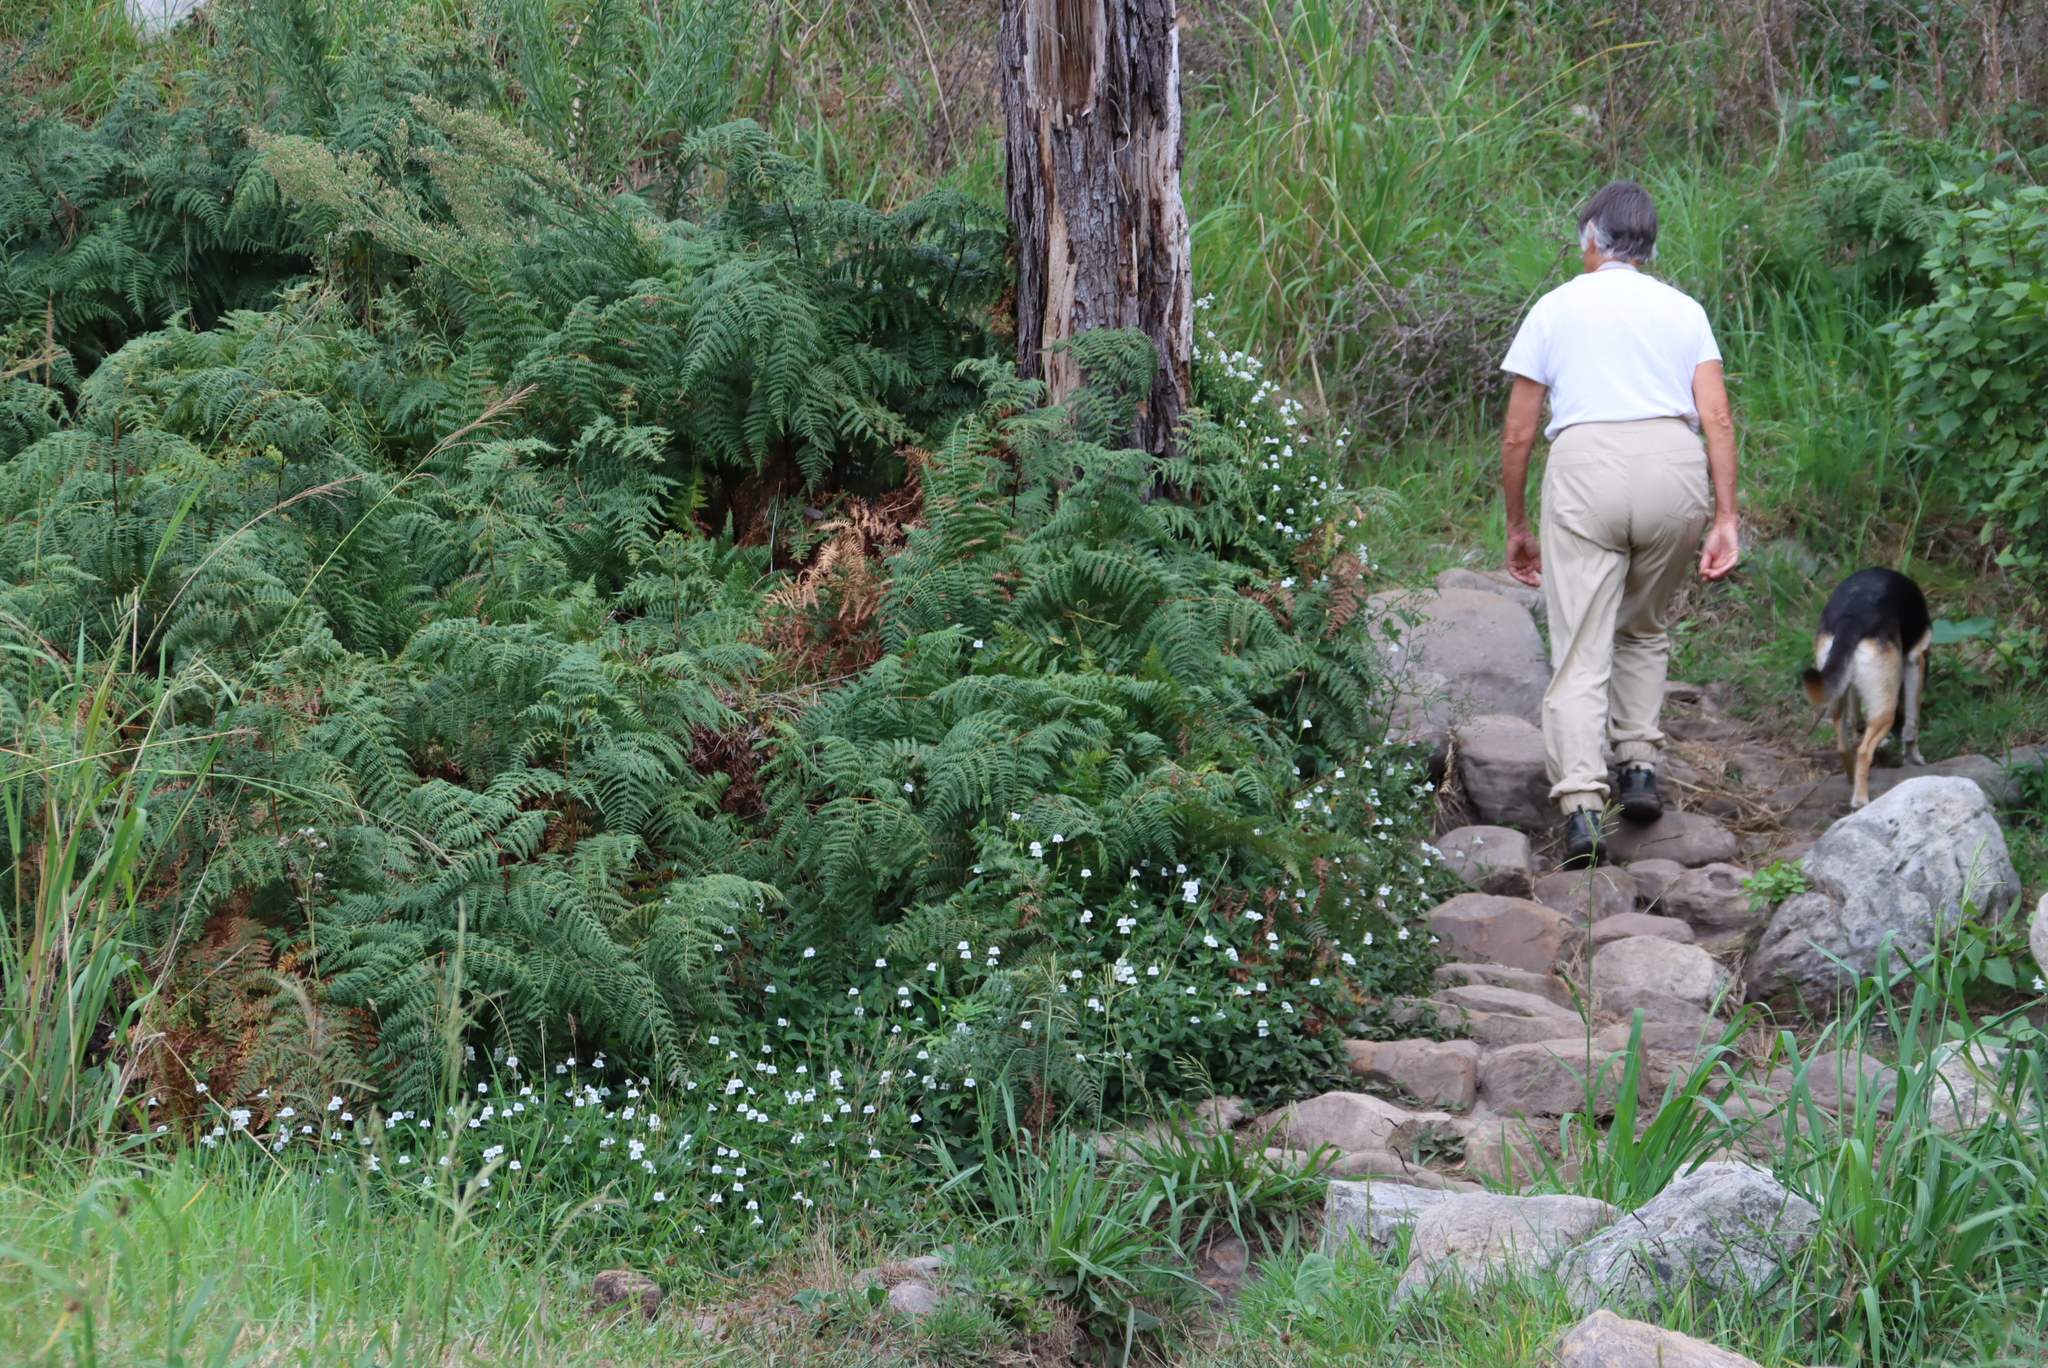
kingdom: Plantae
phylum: Tracheophyta
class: Magnoliopsida
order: Lamiales
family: Acanthaceae
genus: Asystasia
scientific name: Asystasia intrusa
